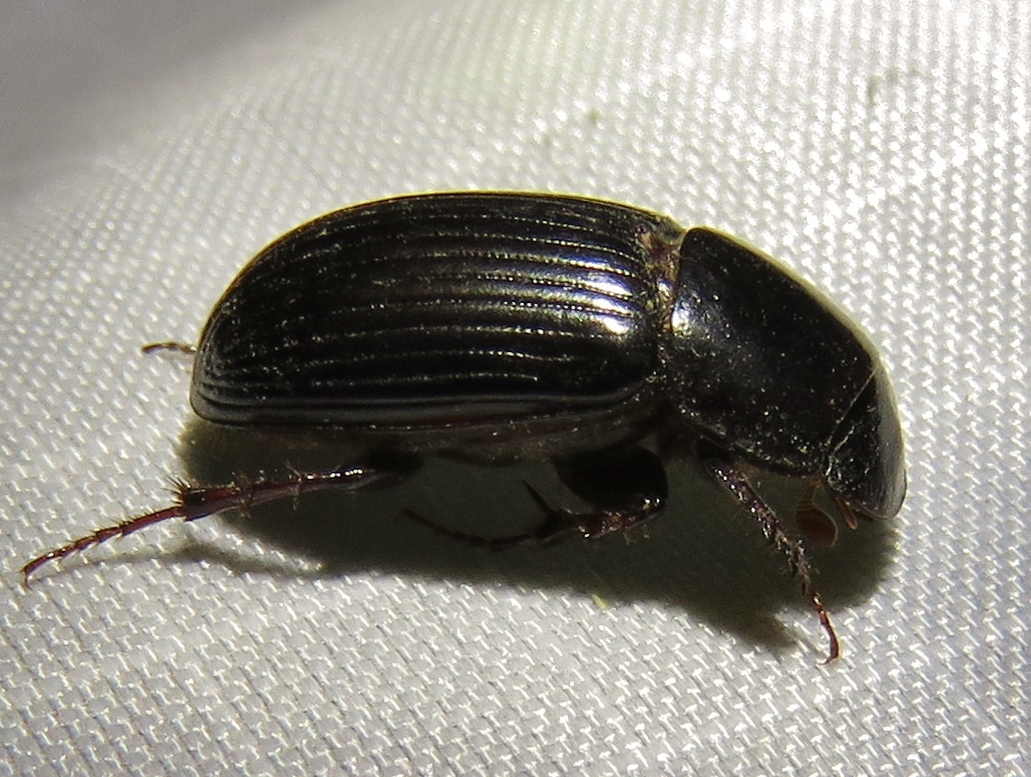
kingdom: Animalia
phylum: Arthropoda
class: Insecta
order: Coleoptera
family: Scarabaeidae
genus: Acrossus
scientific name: Acrossus rufipes
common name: Night-flying dung beetle
